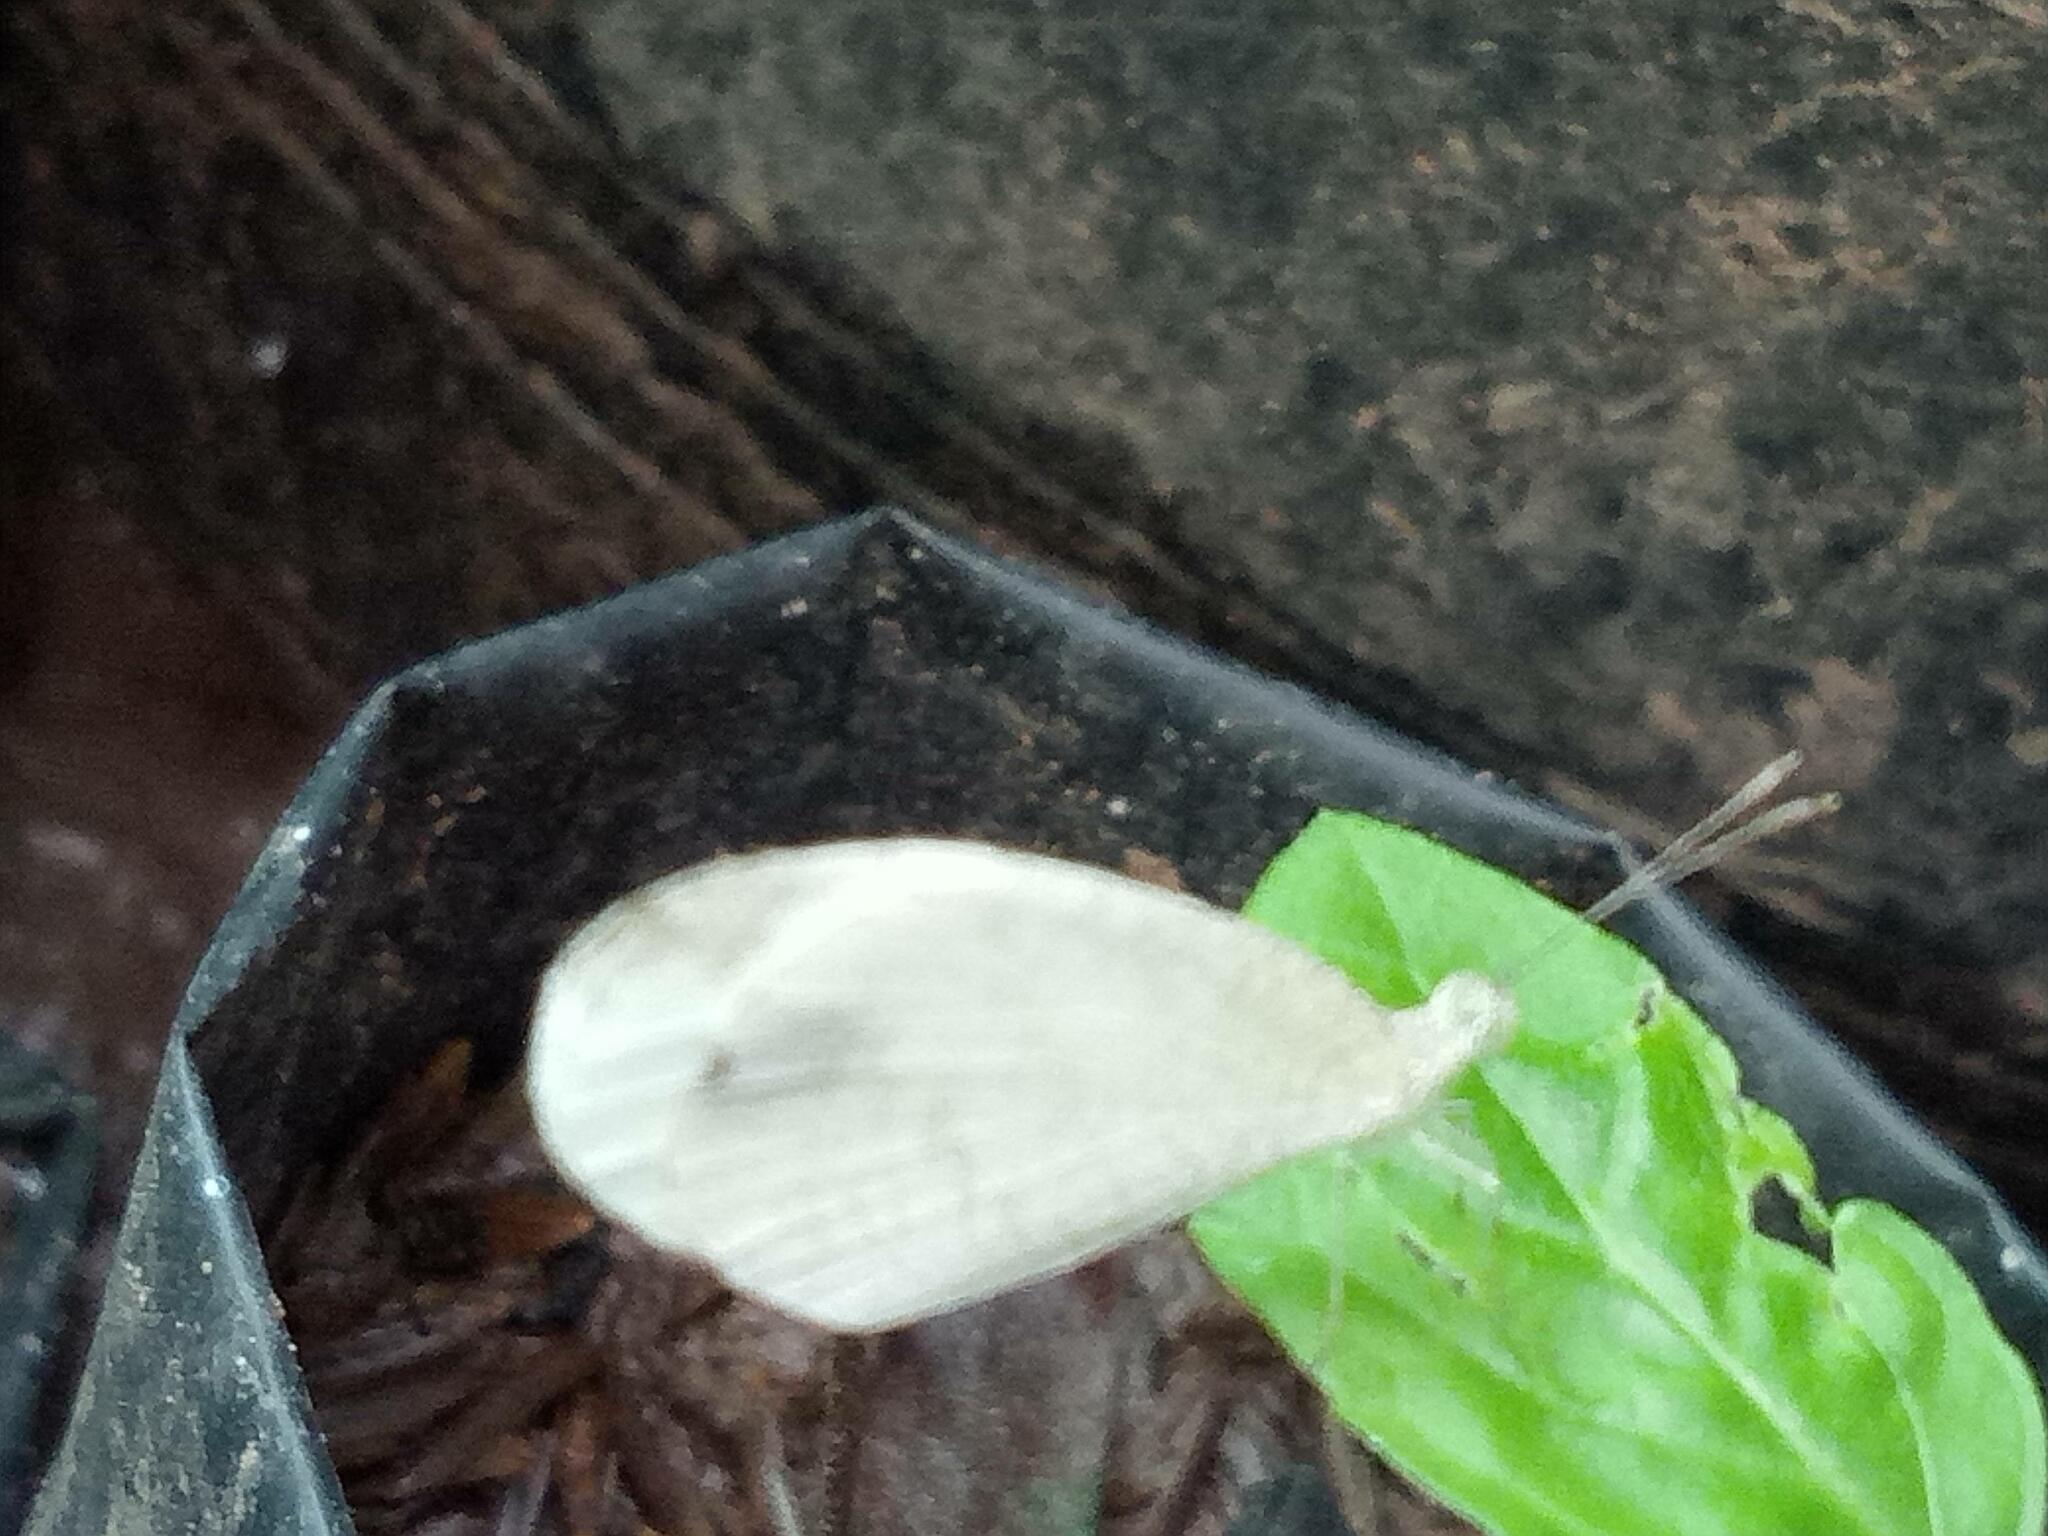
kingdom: Animalia
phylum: Arthropoda
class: Insecta
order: Lepidoptera
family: Pieridae
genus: Leptosia
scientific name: Leptosia nina
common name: Psyche
